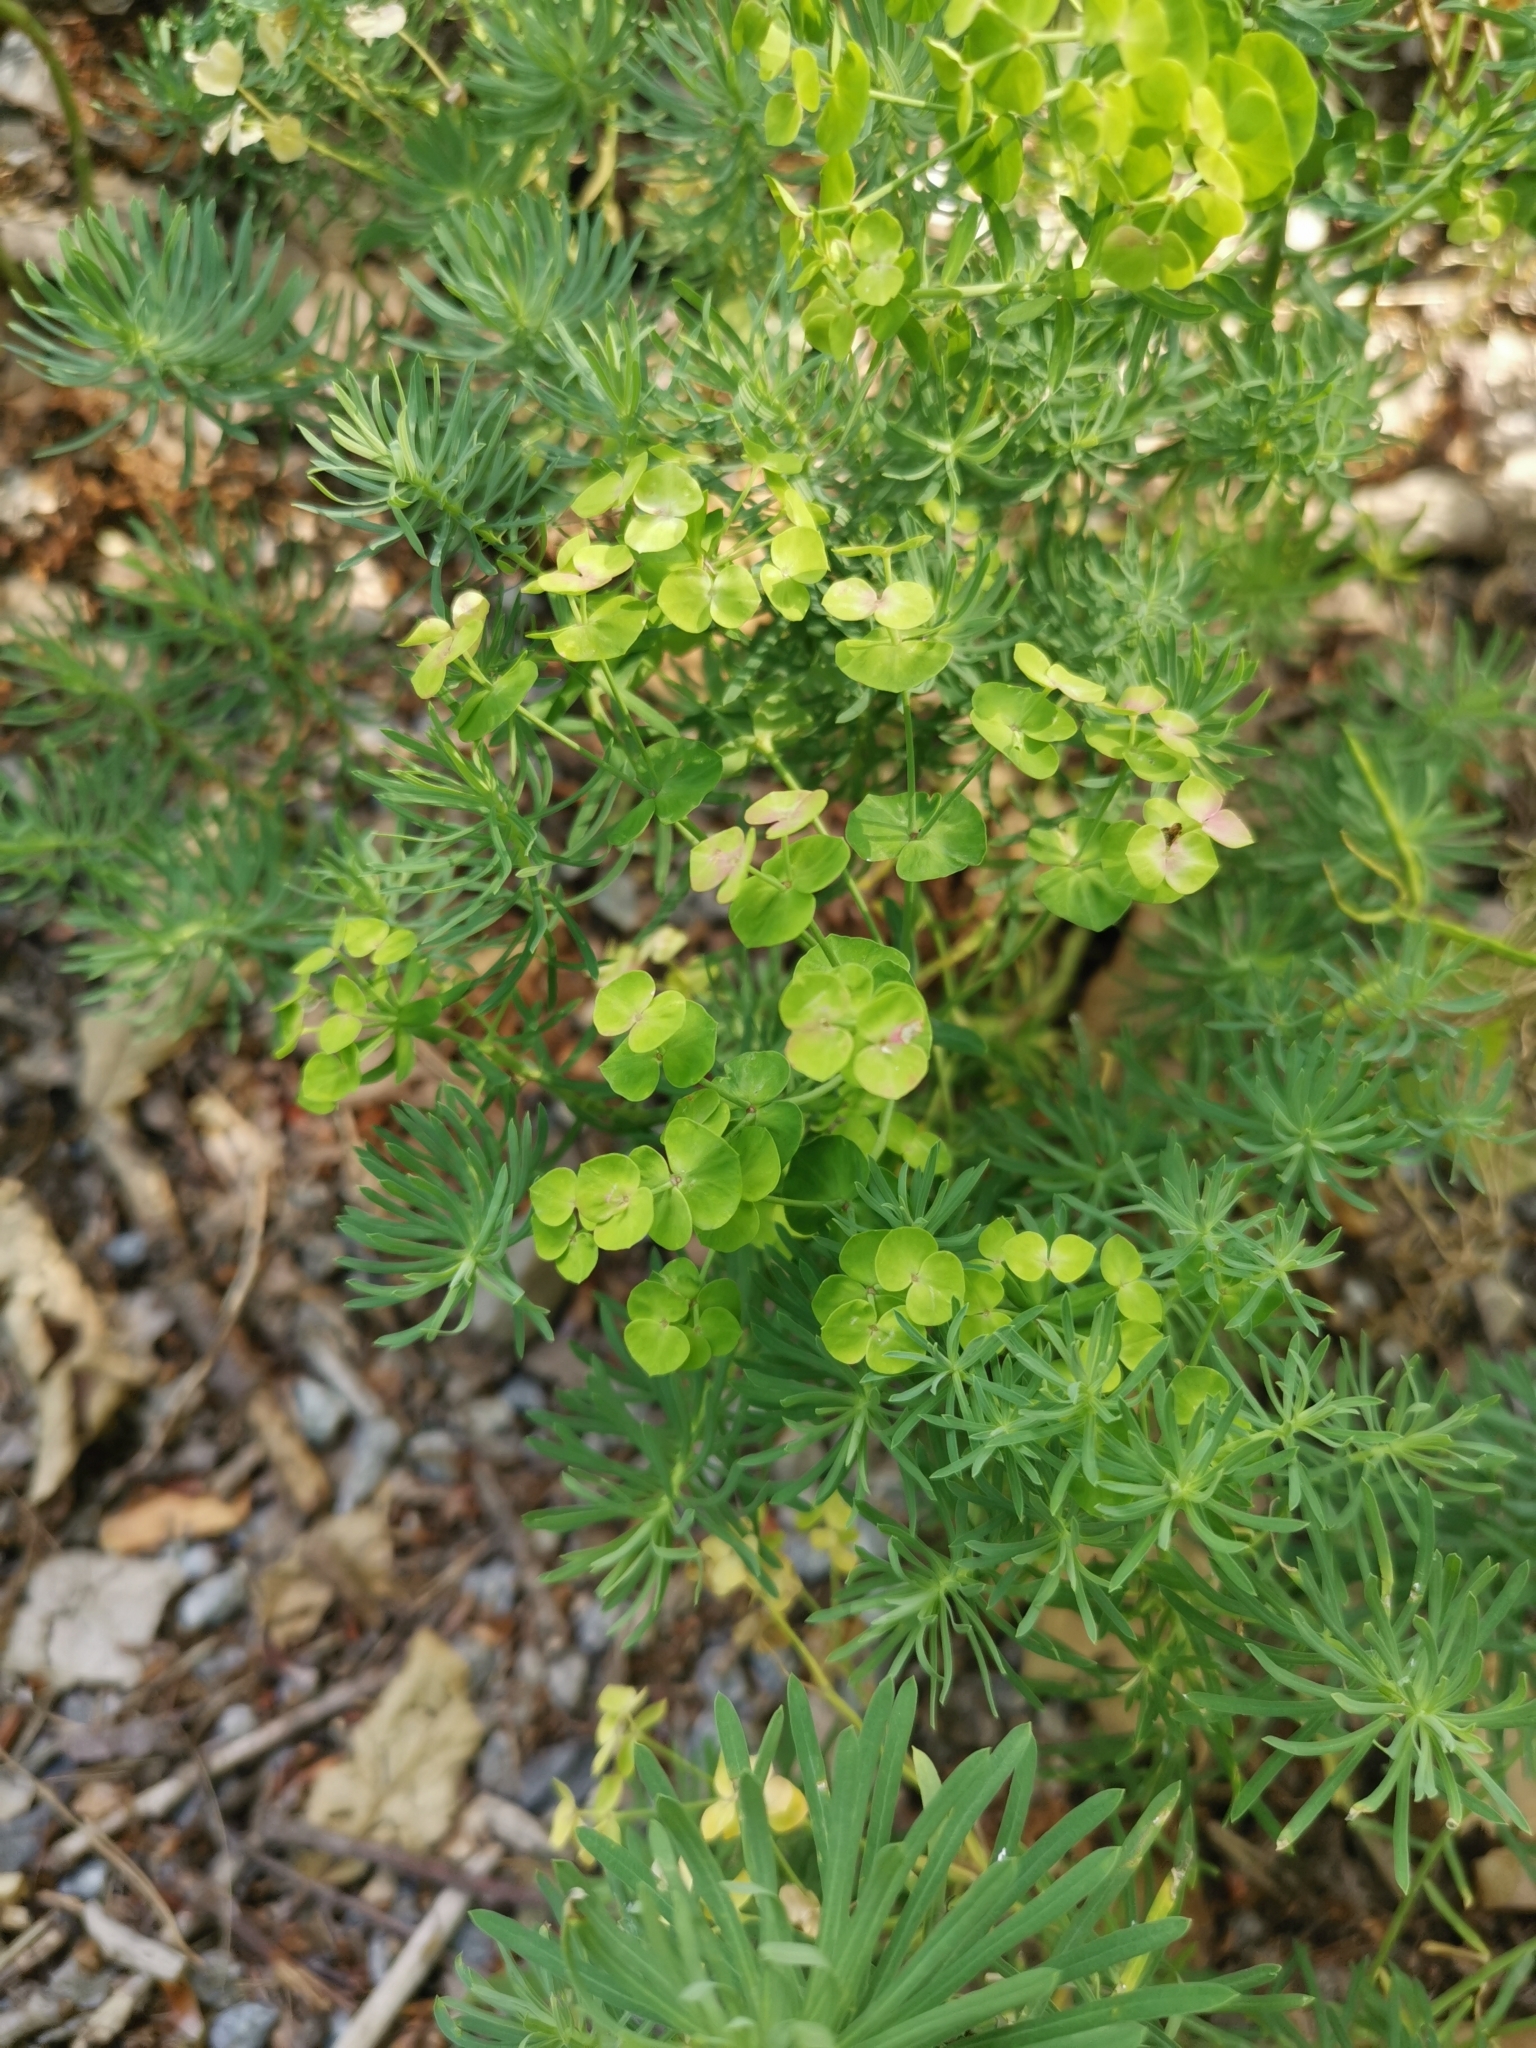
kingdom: Plantae
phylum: Tracheophyta
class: Magnoliopsida
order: Malpighiales
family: Euphorbiaceae
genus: Euphorbia
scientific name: Euphorbia cyparissias
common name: Cypress spurge
